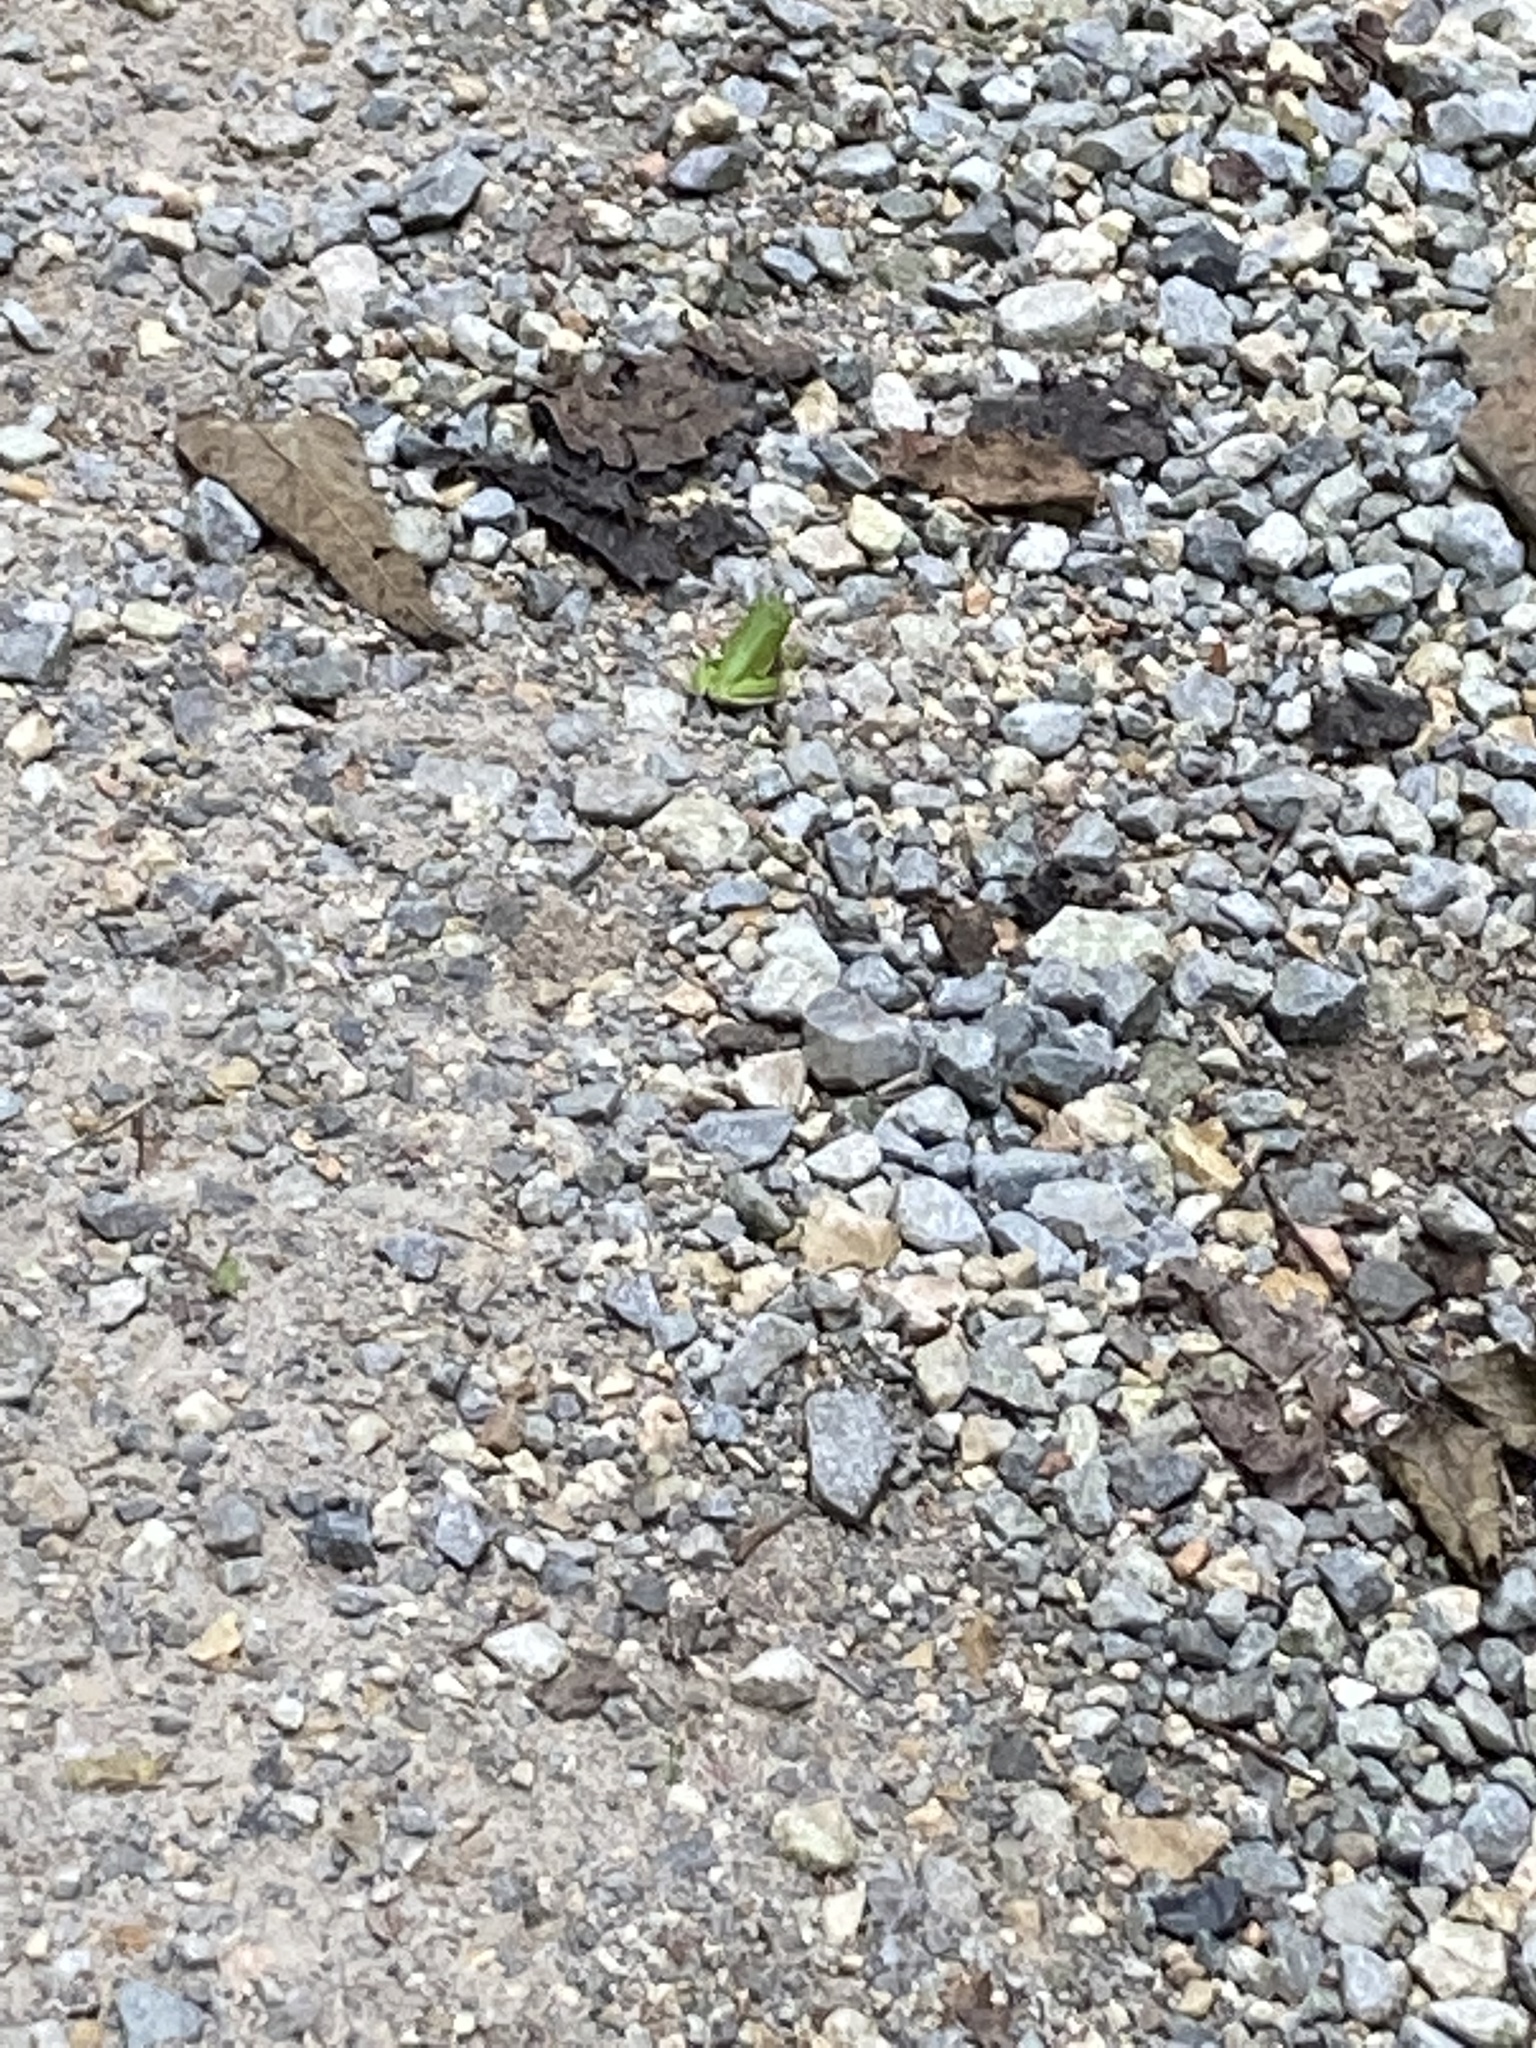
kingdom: Animalia
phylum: Chordata
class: Amphibia
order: Anura
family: Hylidae
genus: Dryophytes
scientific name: Dryophytes cinereus
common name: Green treefrog
